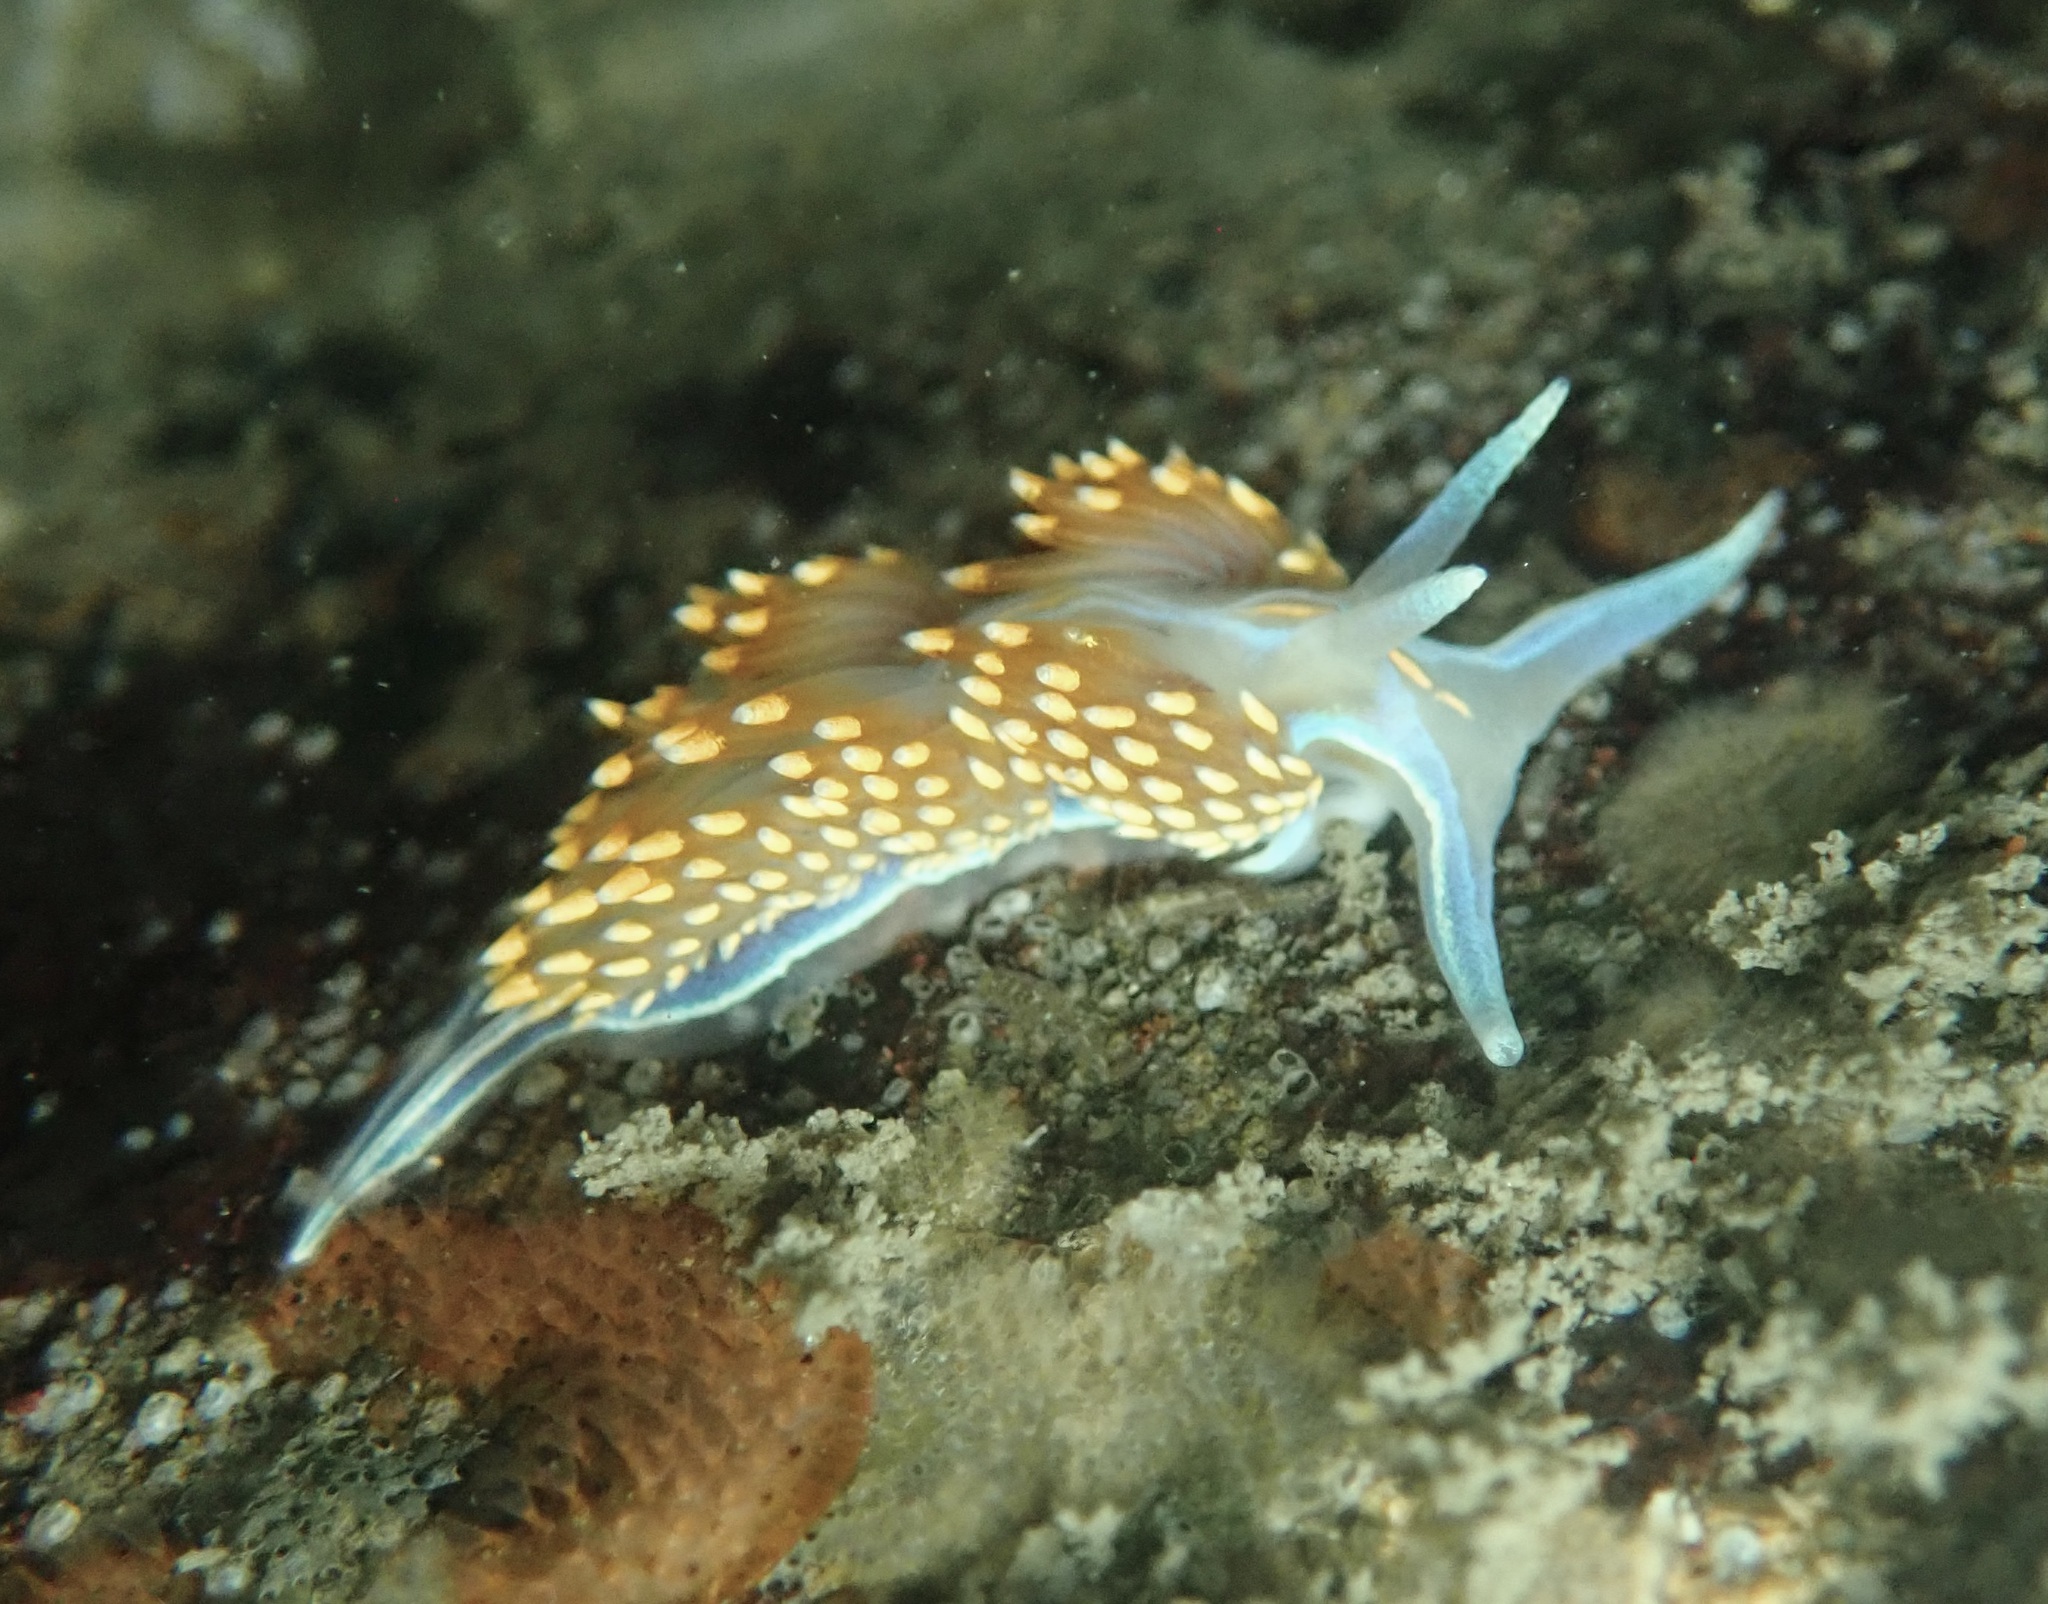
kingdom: Animalia
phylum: Mollusca
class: Gastropoda
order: Nudibranchia
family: Myrrhinidae
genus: Hermissenda
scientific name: Hermissenda opalescens
